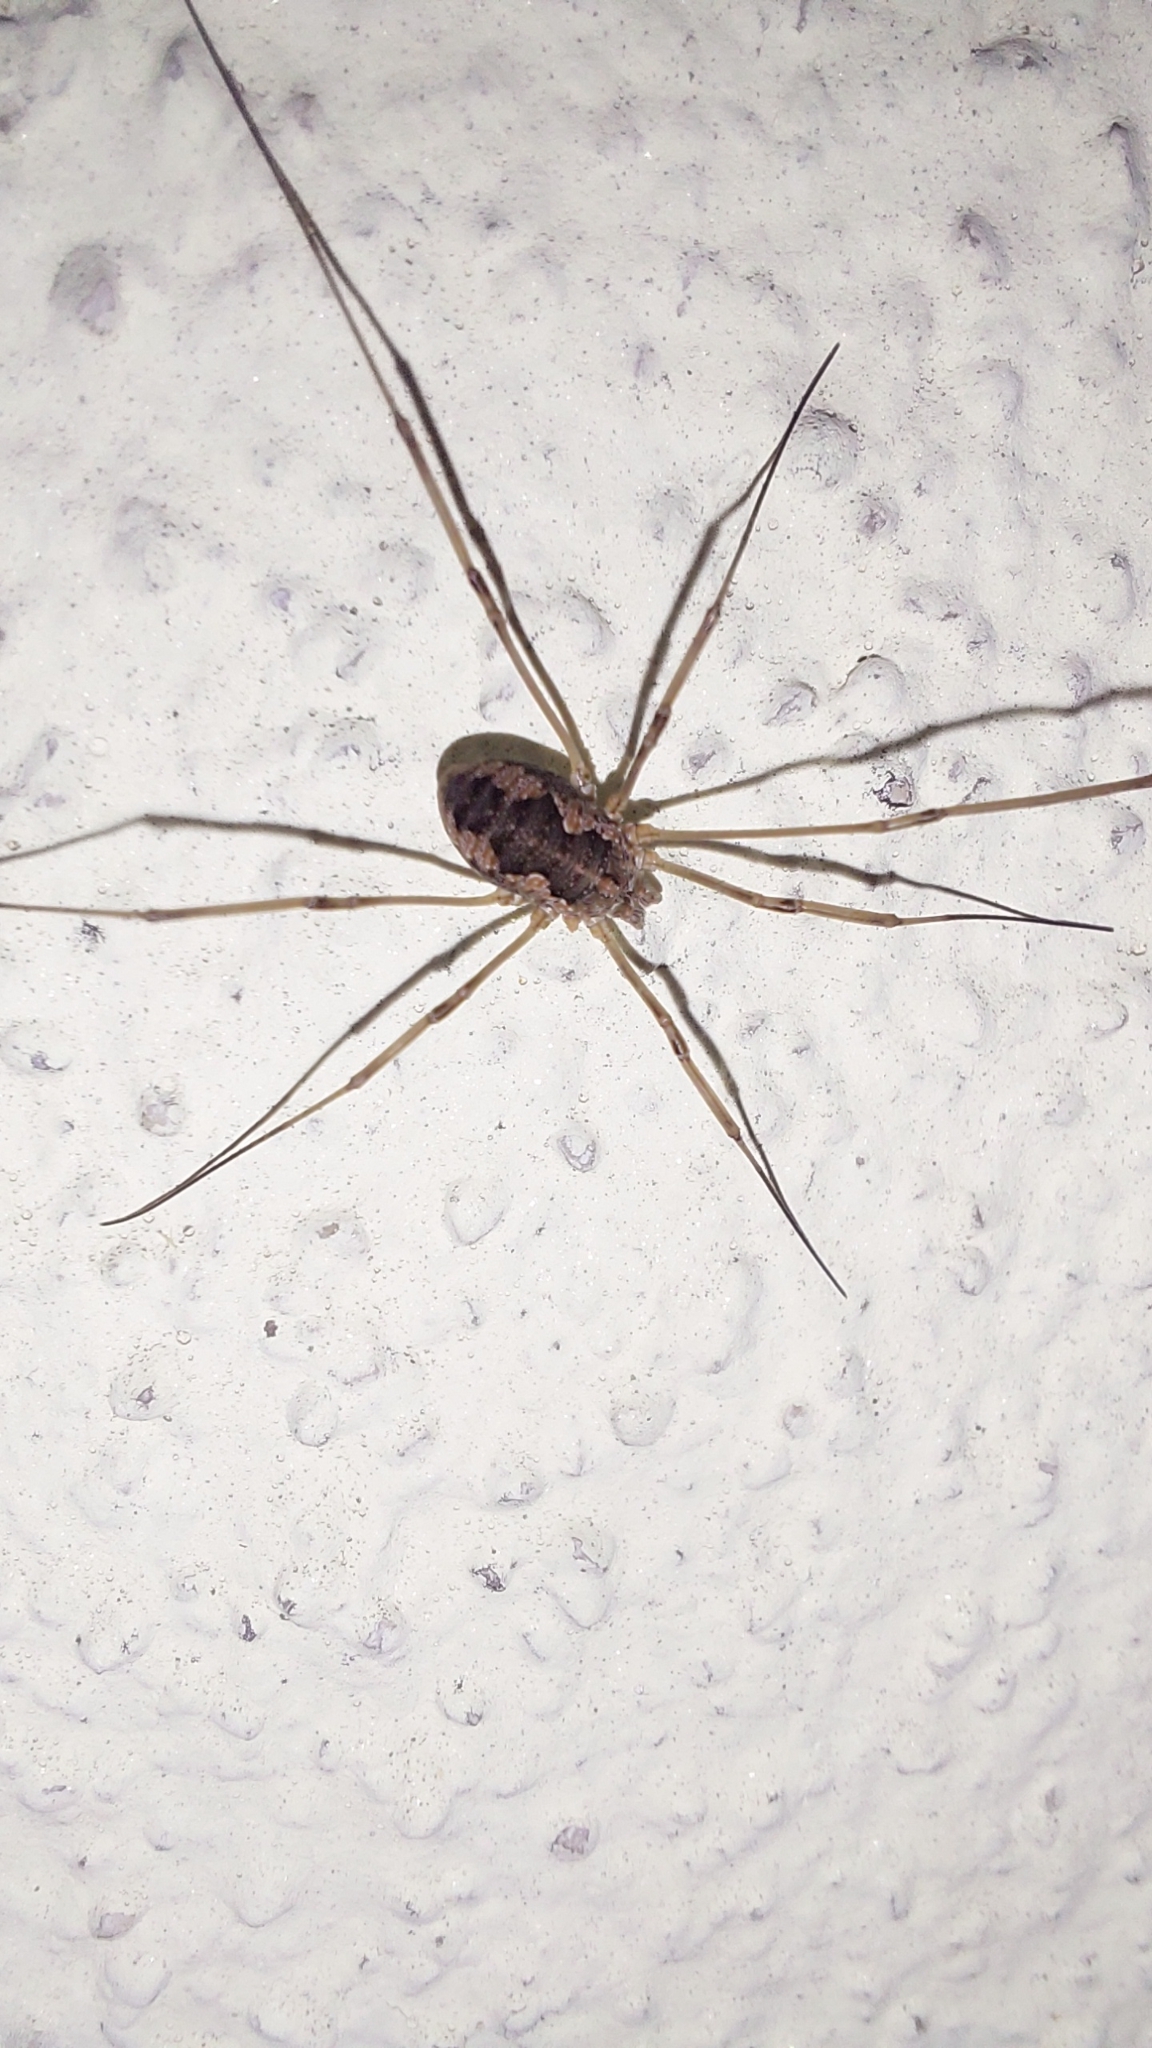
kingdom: Animalia
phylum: Arthropoda
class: Arachnida
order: Opiliones
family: Phalangiidae
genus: Phalangium
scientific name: Phalangium opilio
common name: Daddy longleg
